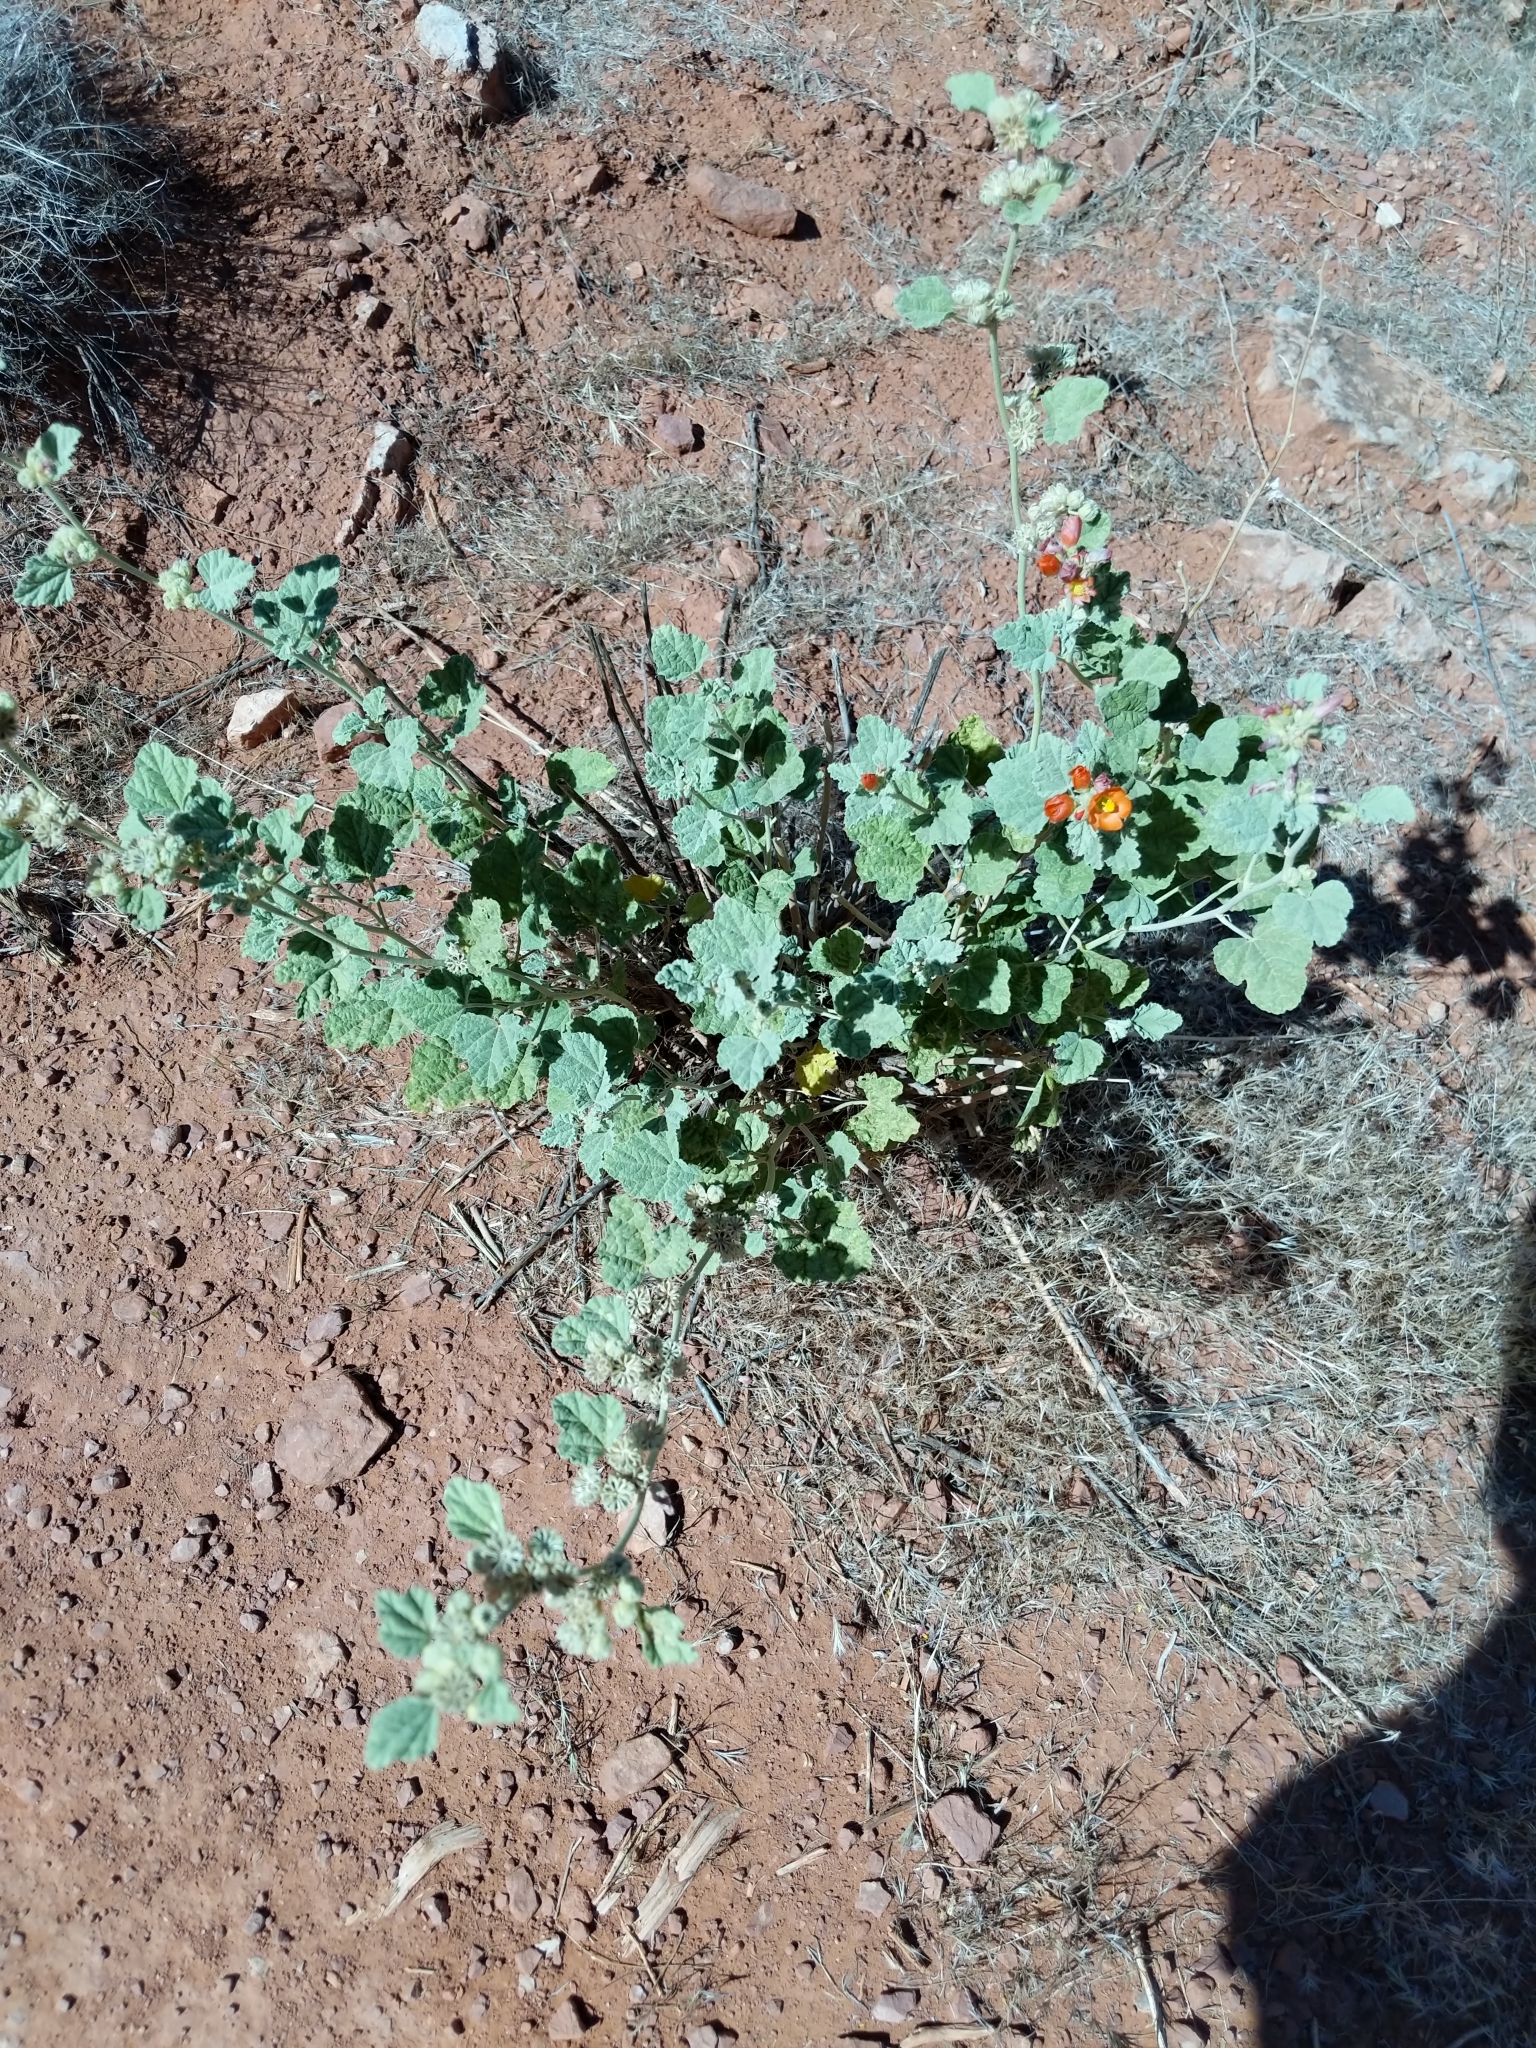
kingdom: Plantae
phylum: Tracheophyta
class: Magnoliopsida
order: Malvales
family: Malvaceae
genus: Sphaeralcea
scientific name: Sphaeralcea ambigua
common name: Apricot globe-mallow
